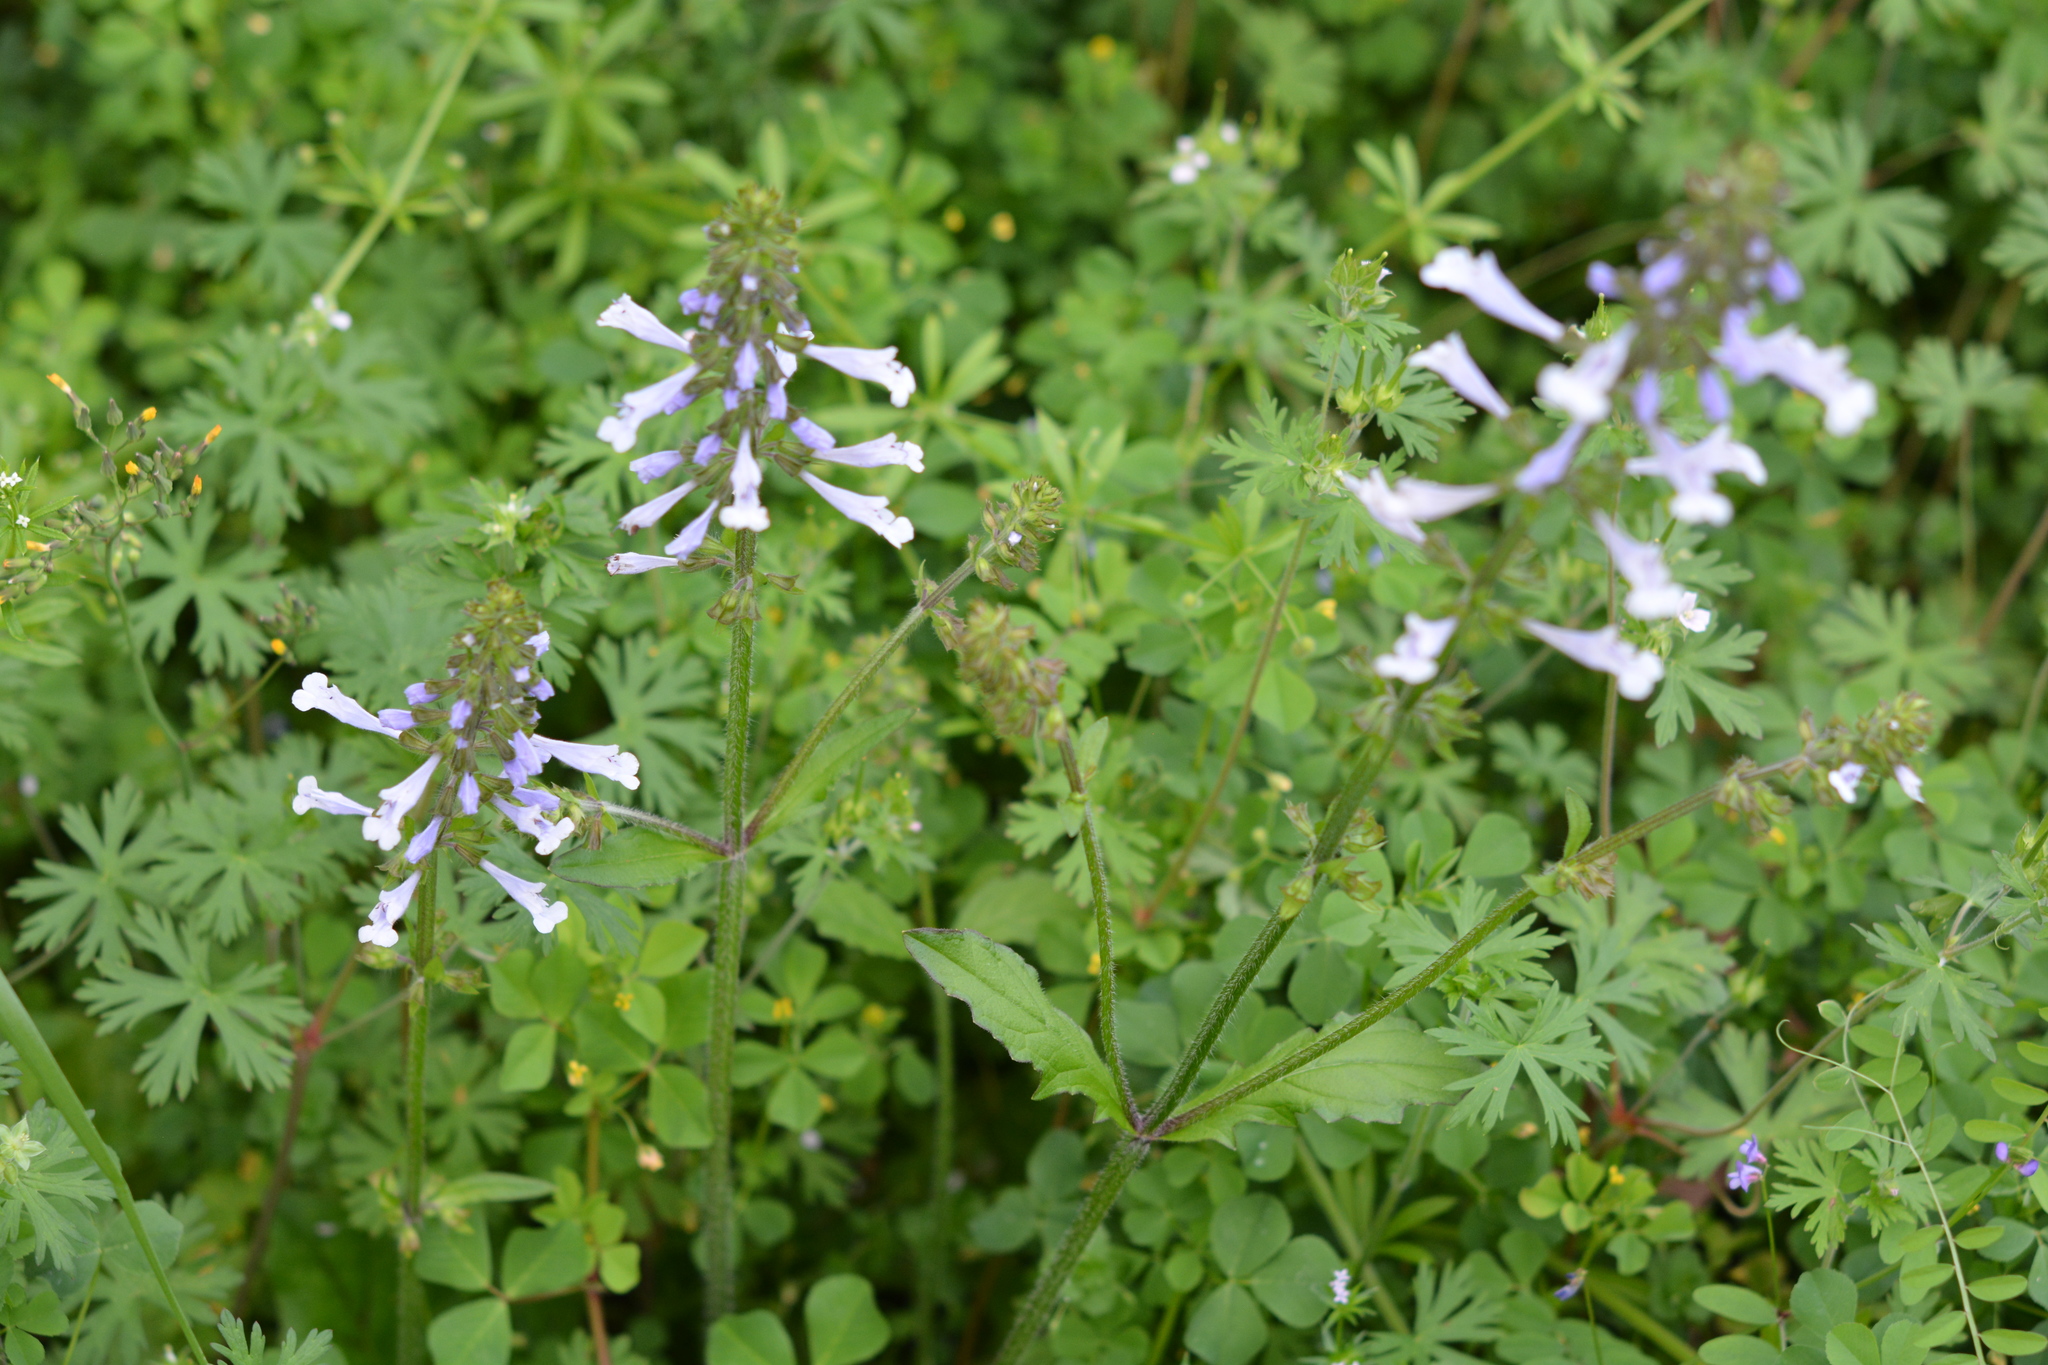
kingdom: Plantae
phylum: Tracheophyta
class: Magnoliopsida
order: Lamiales
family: Lamiaceae
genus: Salvia
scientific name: Salvia lyrata
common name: Cancerweed
